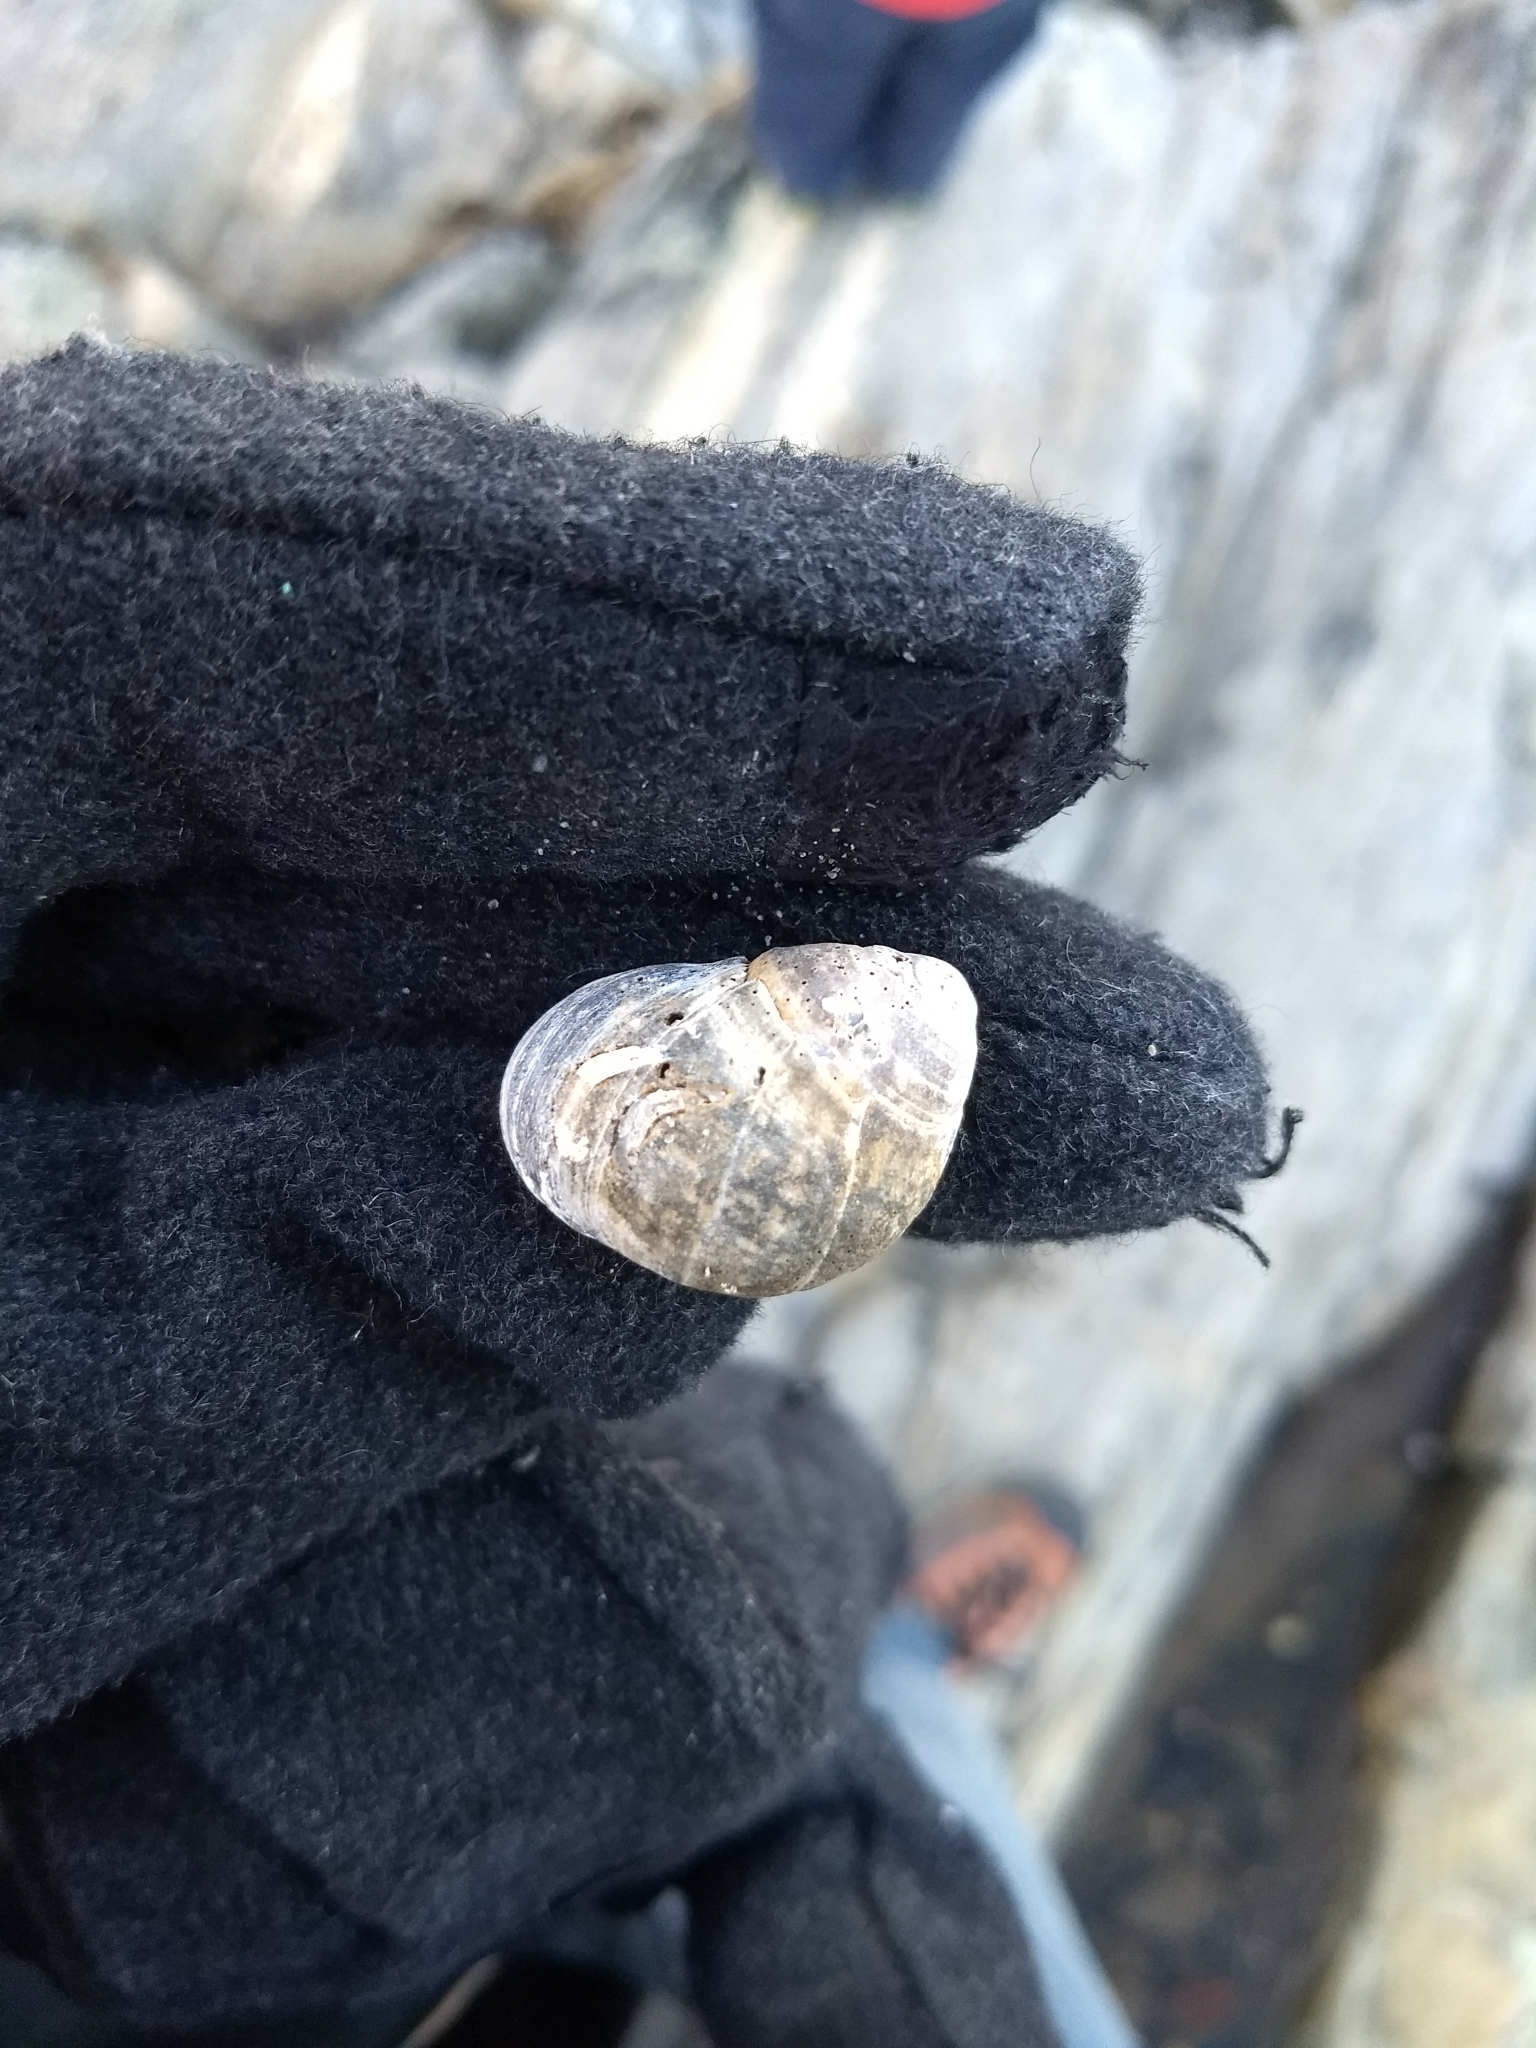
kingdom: Animalia
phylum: Mollusca
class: Gastropoda
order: Littorinimorpha
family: Littorinidae
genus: Littorina
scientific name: Littorina littorea
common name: Common periwinkle
